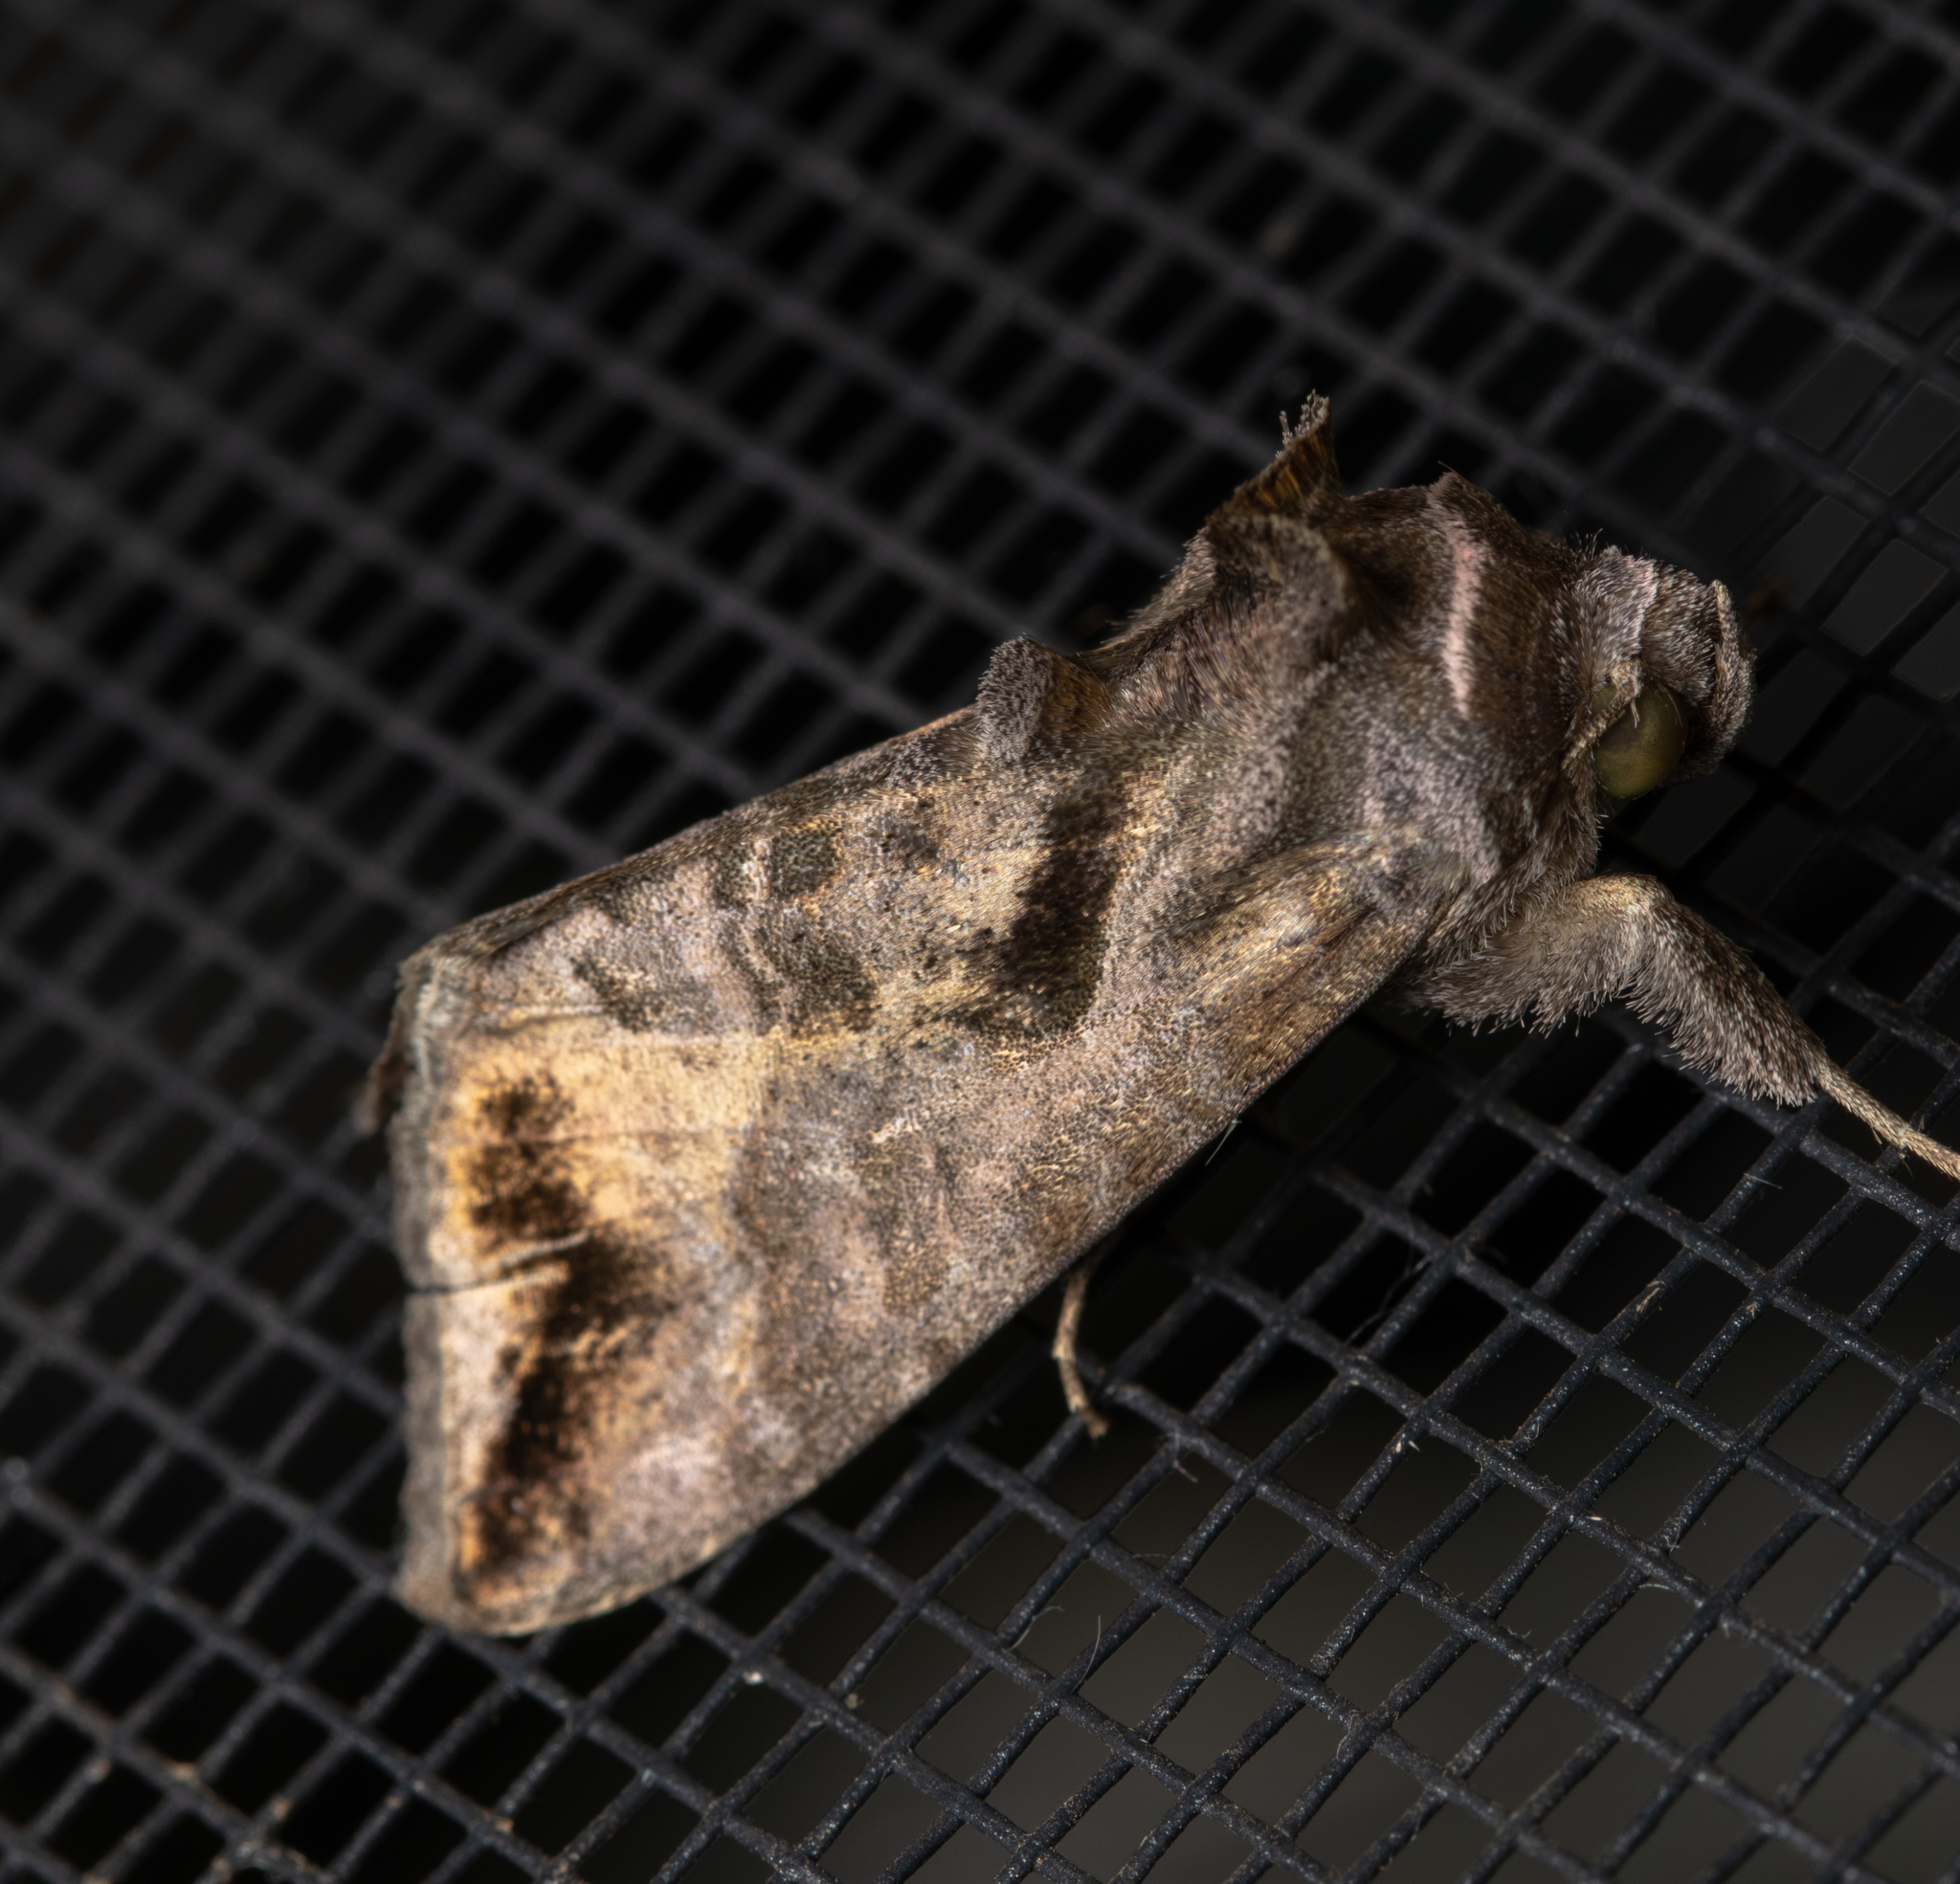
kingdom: Animalia
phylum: Arthropoda
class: Insecta
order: Lepidoptera
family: Noctuidae
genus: Anadevidia
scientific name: Anadevidia peponis
